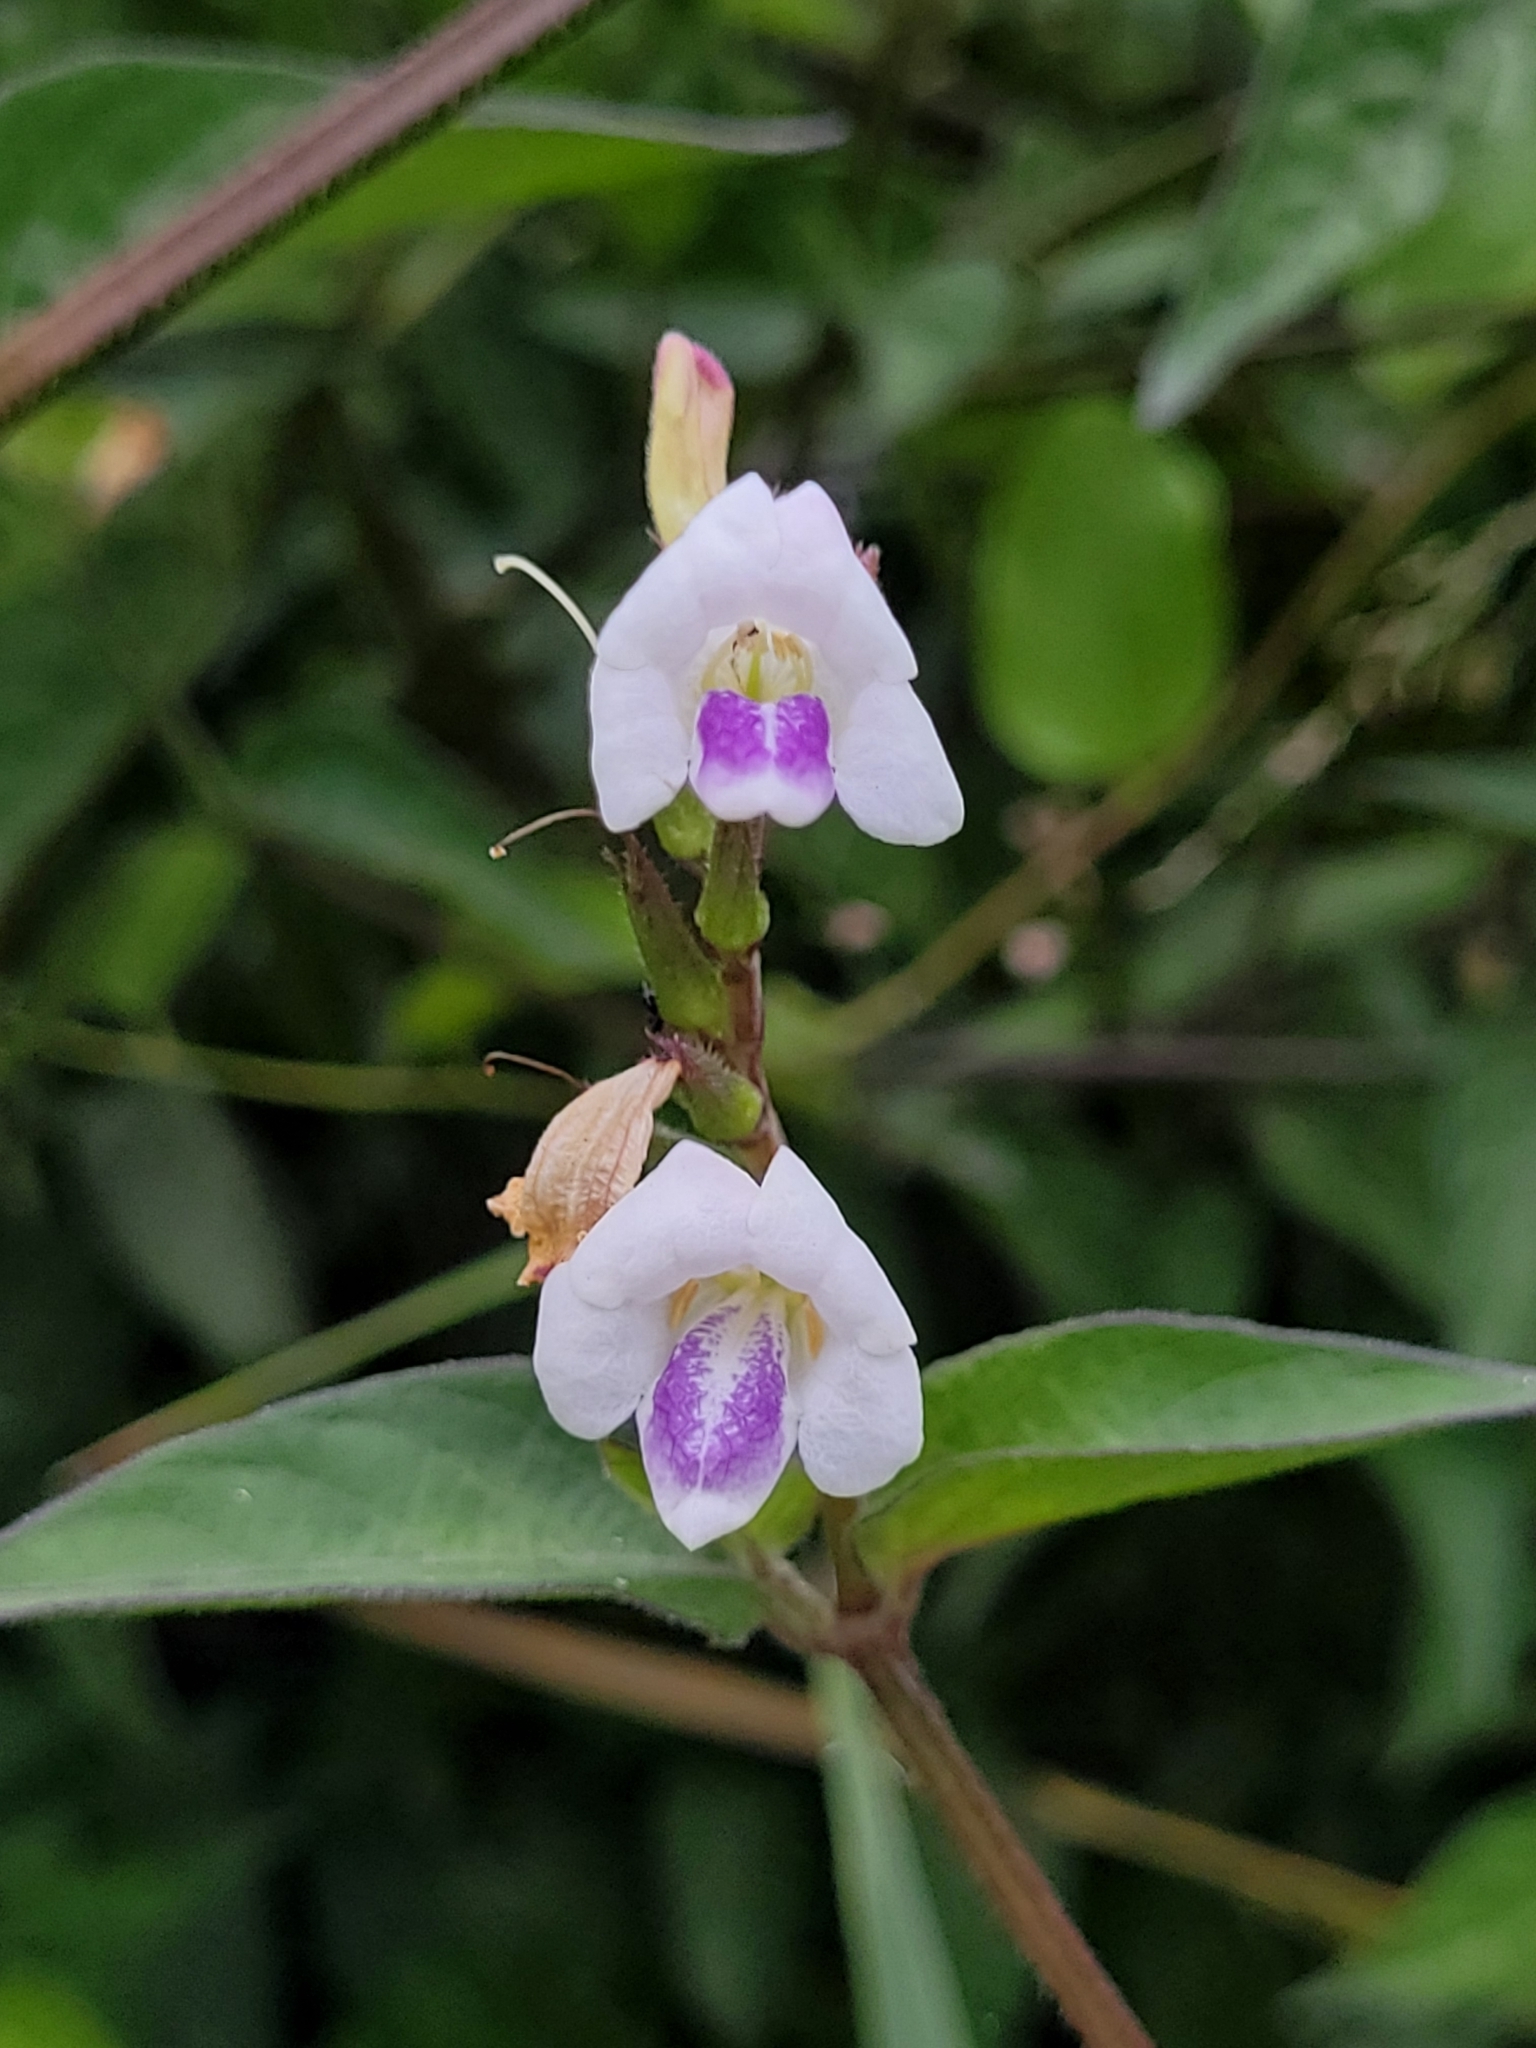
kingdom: Plantae
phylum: Tracheophyta
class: Magnoliopsida
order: Lamiales
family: Acanthaceae
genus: Asystasia
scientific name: Asystasia intrusa
